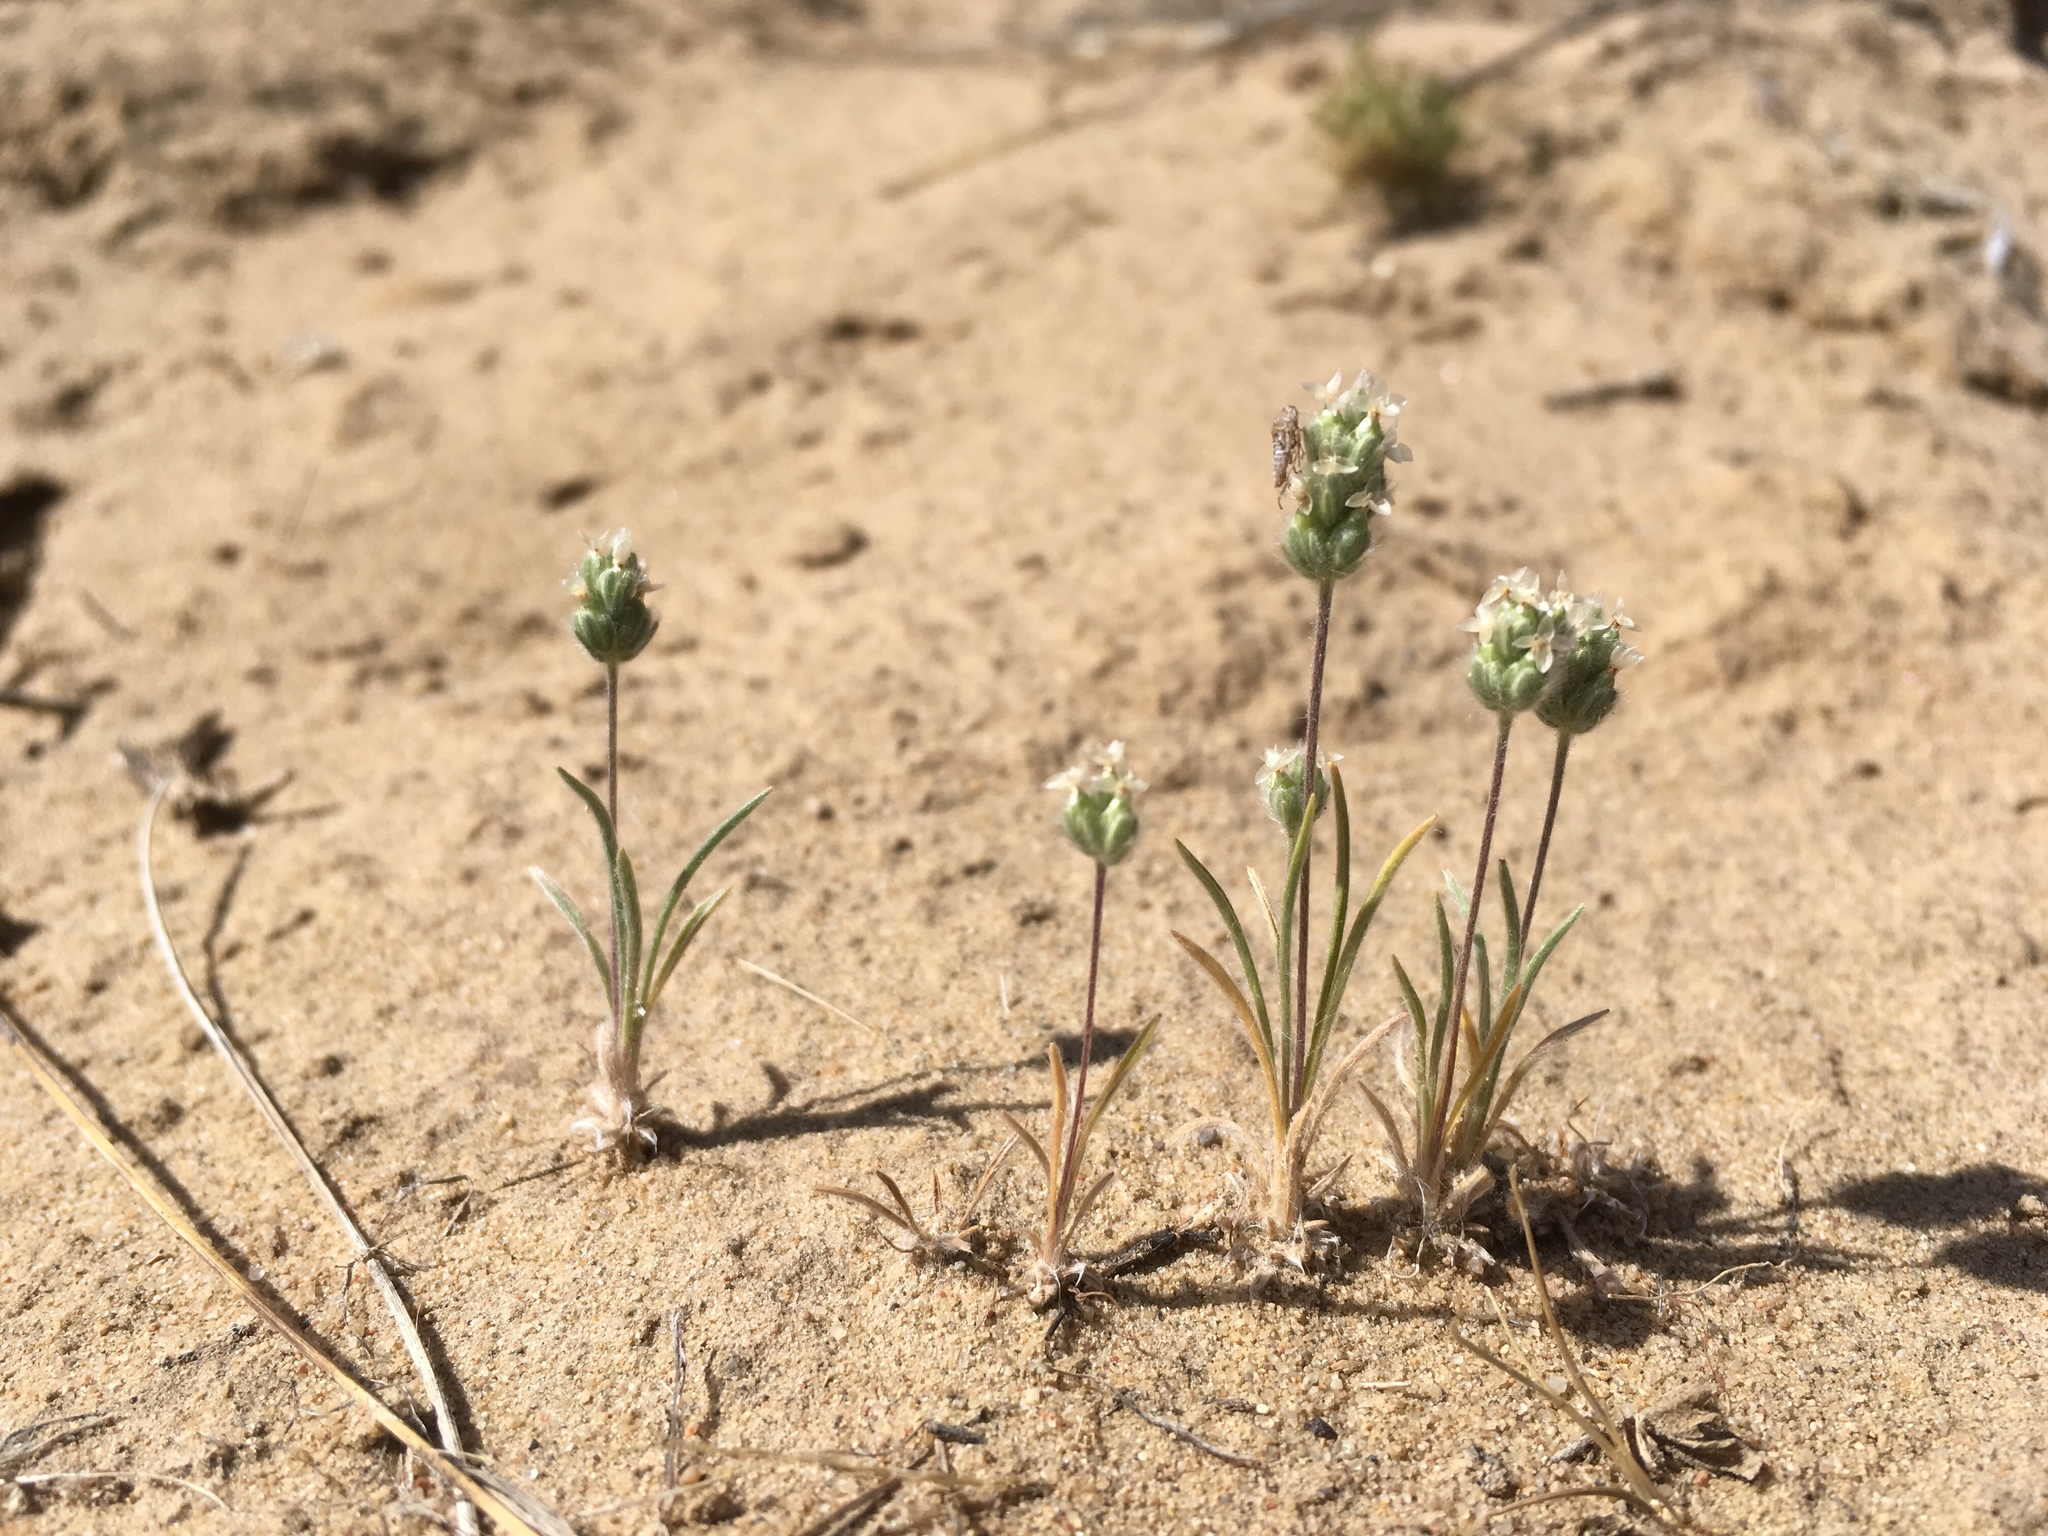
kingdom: Plantae
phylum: Tracheophyta
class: Magnoliopsida
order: Lamiales
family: Plantaginaceae
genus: Plantago
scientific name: Plantago patagonica
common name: Patagonia indian-wheat
